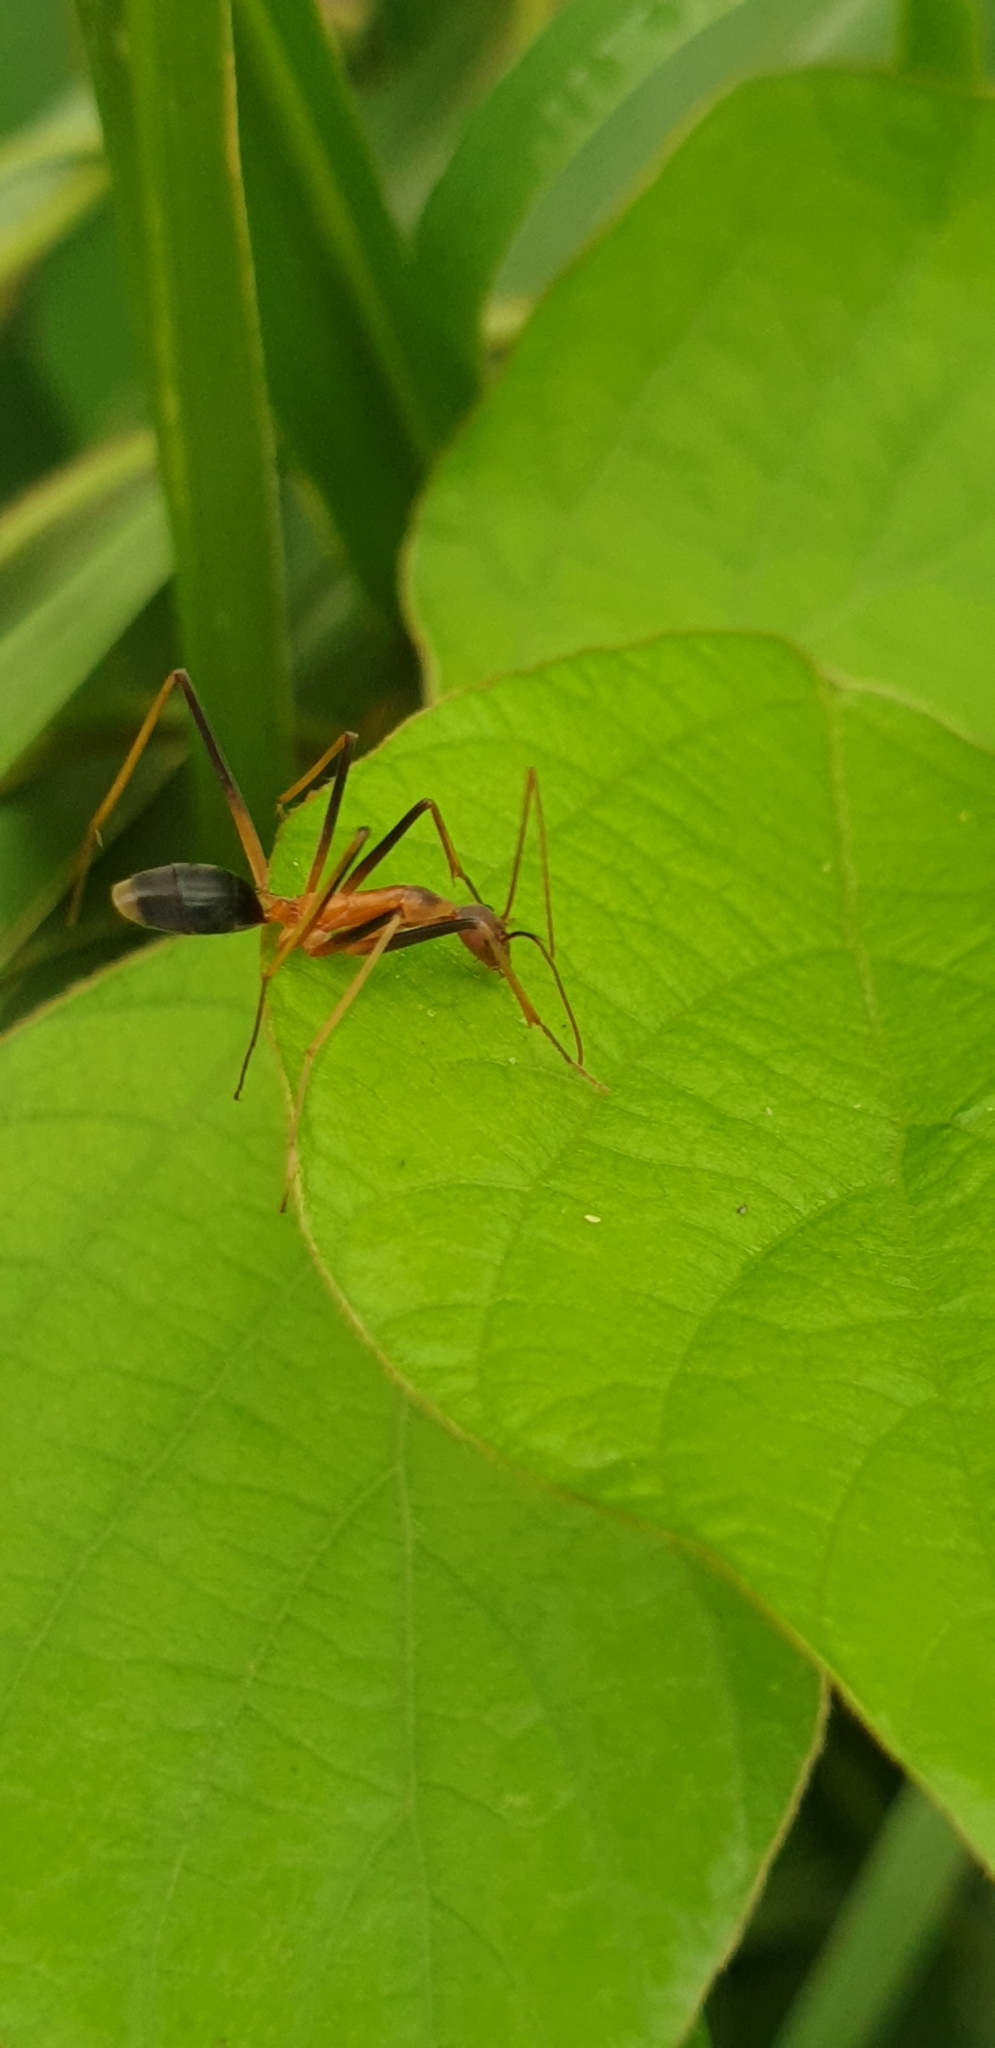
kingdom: Animalia
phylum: Arthropoda
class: Insecta
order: Hymenoptera
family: Formicidae
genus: Leptomyrmex
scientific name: Leptomyrmex cnemidatus
